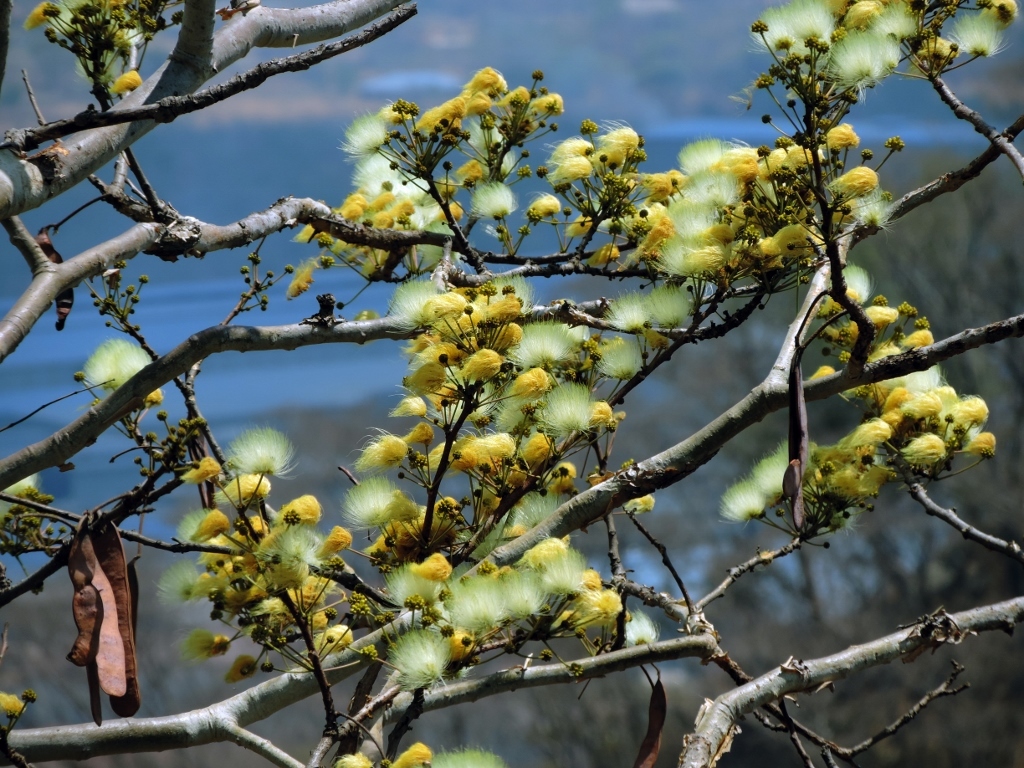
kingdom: Plantae
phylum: Tracheophyta
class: Magnoliopsida
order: Fabales
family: Fabaceae
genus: Albizia
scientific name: Albizia tanganyicensis
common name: Paperbark false thorn
